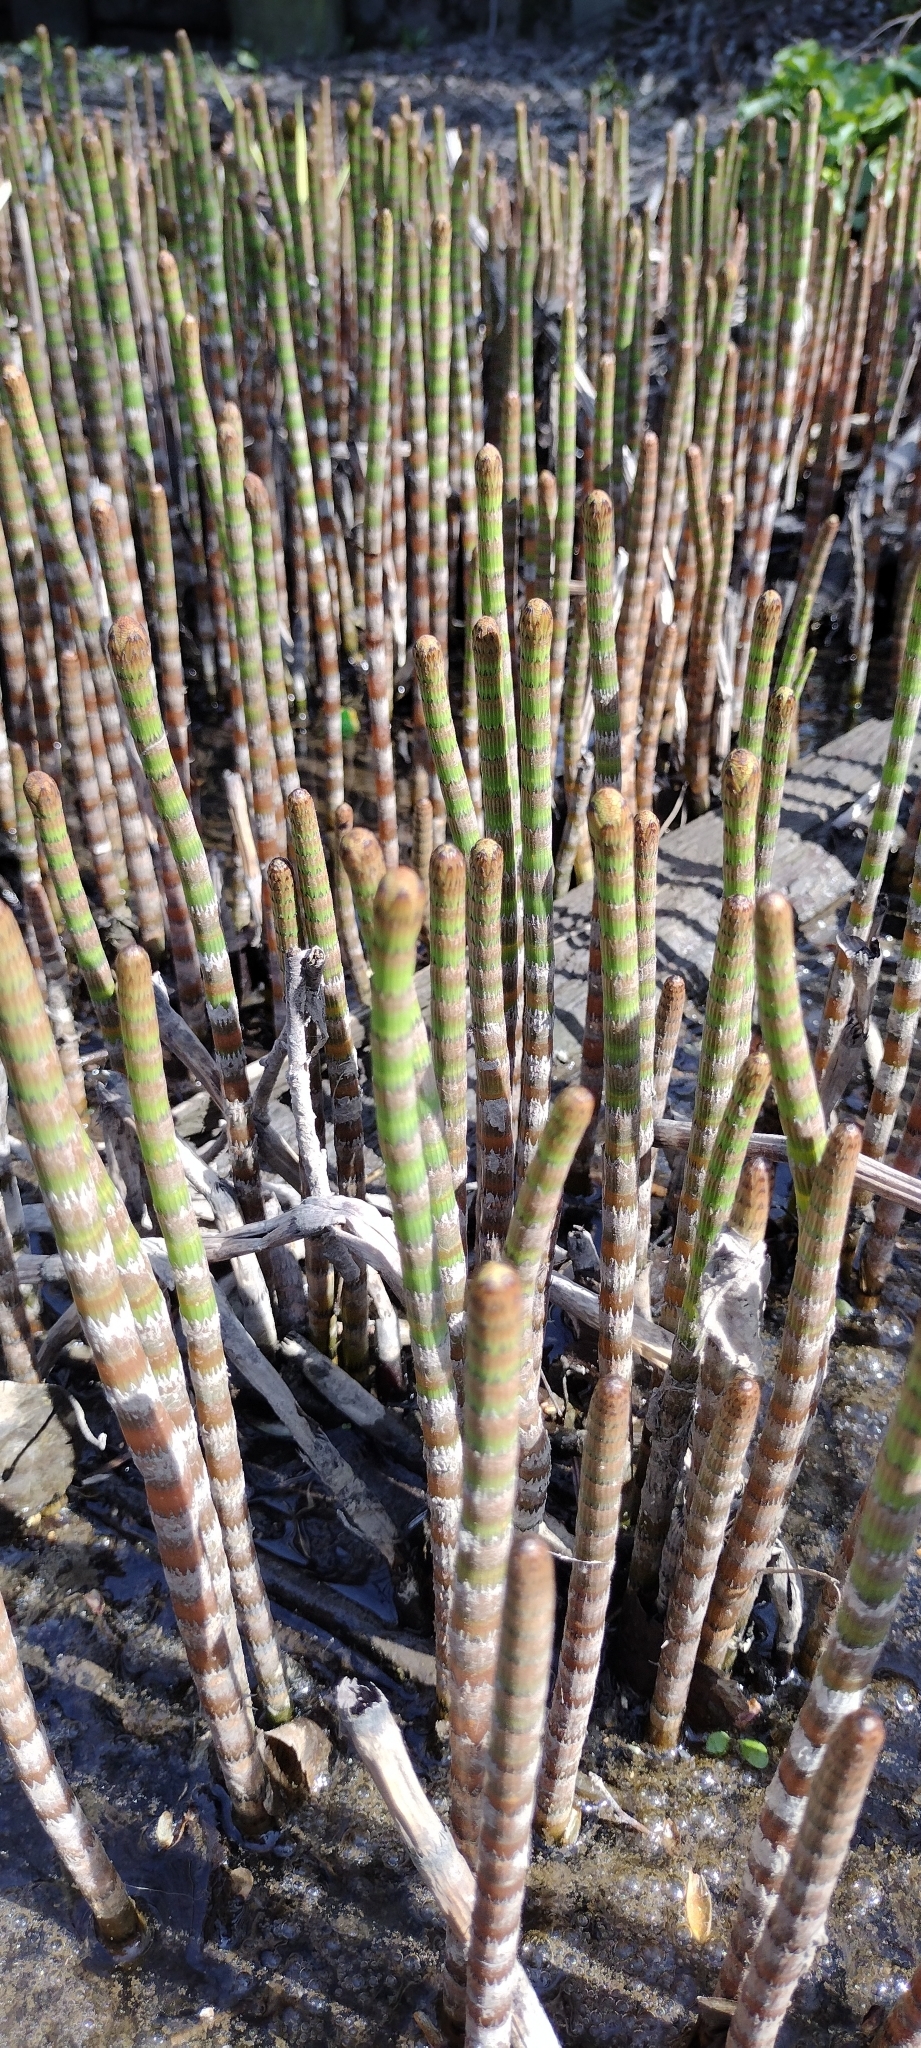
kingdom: Plantae
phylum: Tracheophyta
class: Polypodiopsida
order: Equisetales
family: Equisetaceae
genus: Equisetum
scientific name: Equisetum fluviatile
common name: Water horsetail
